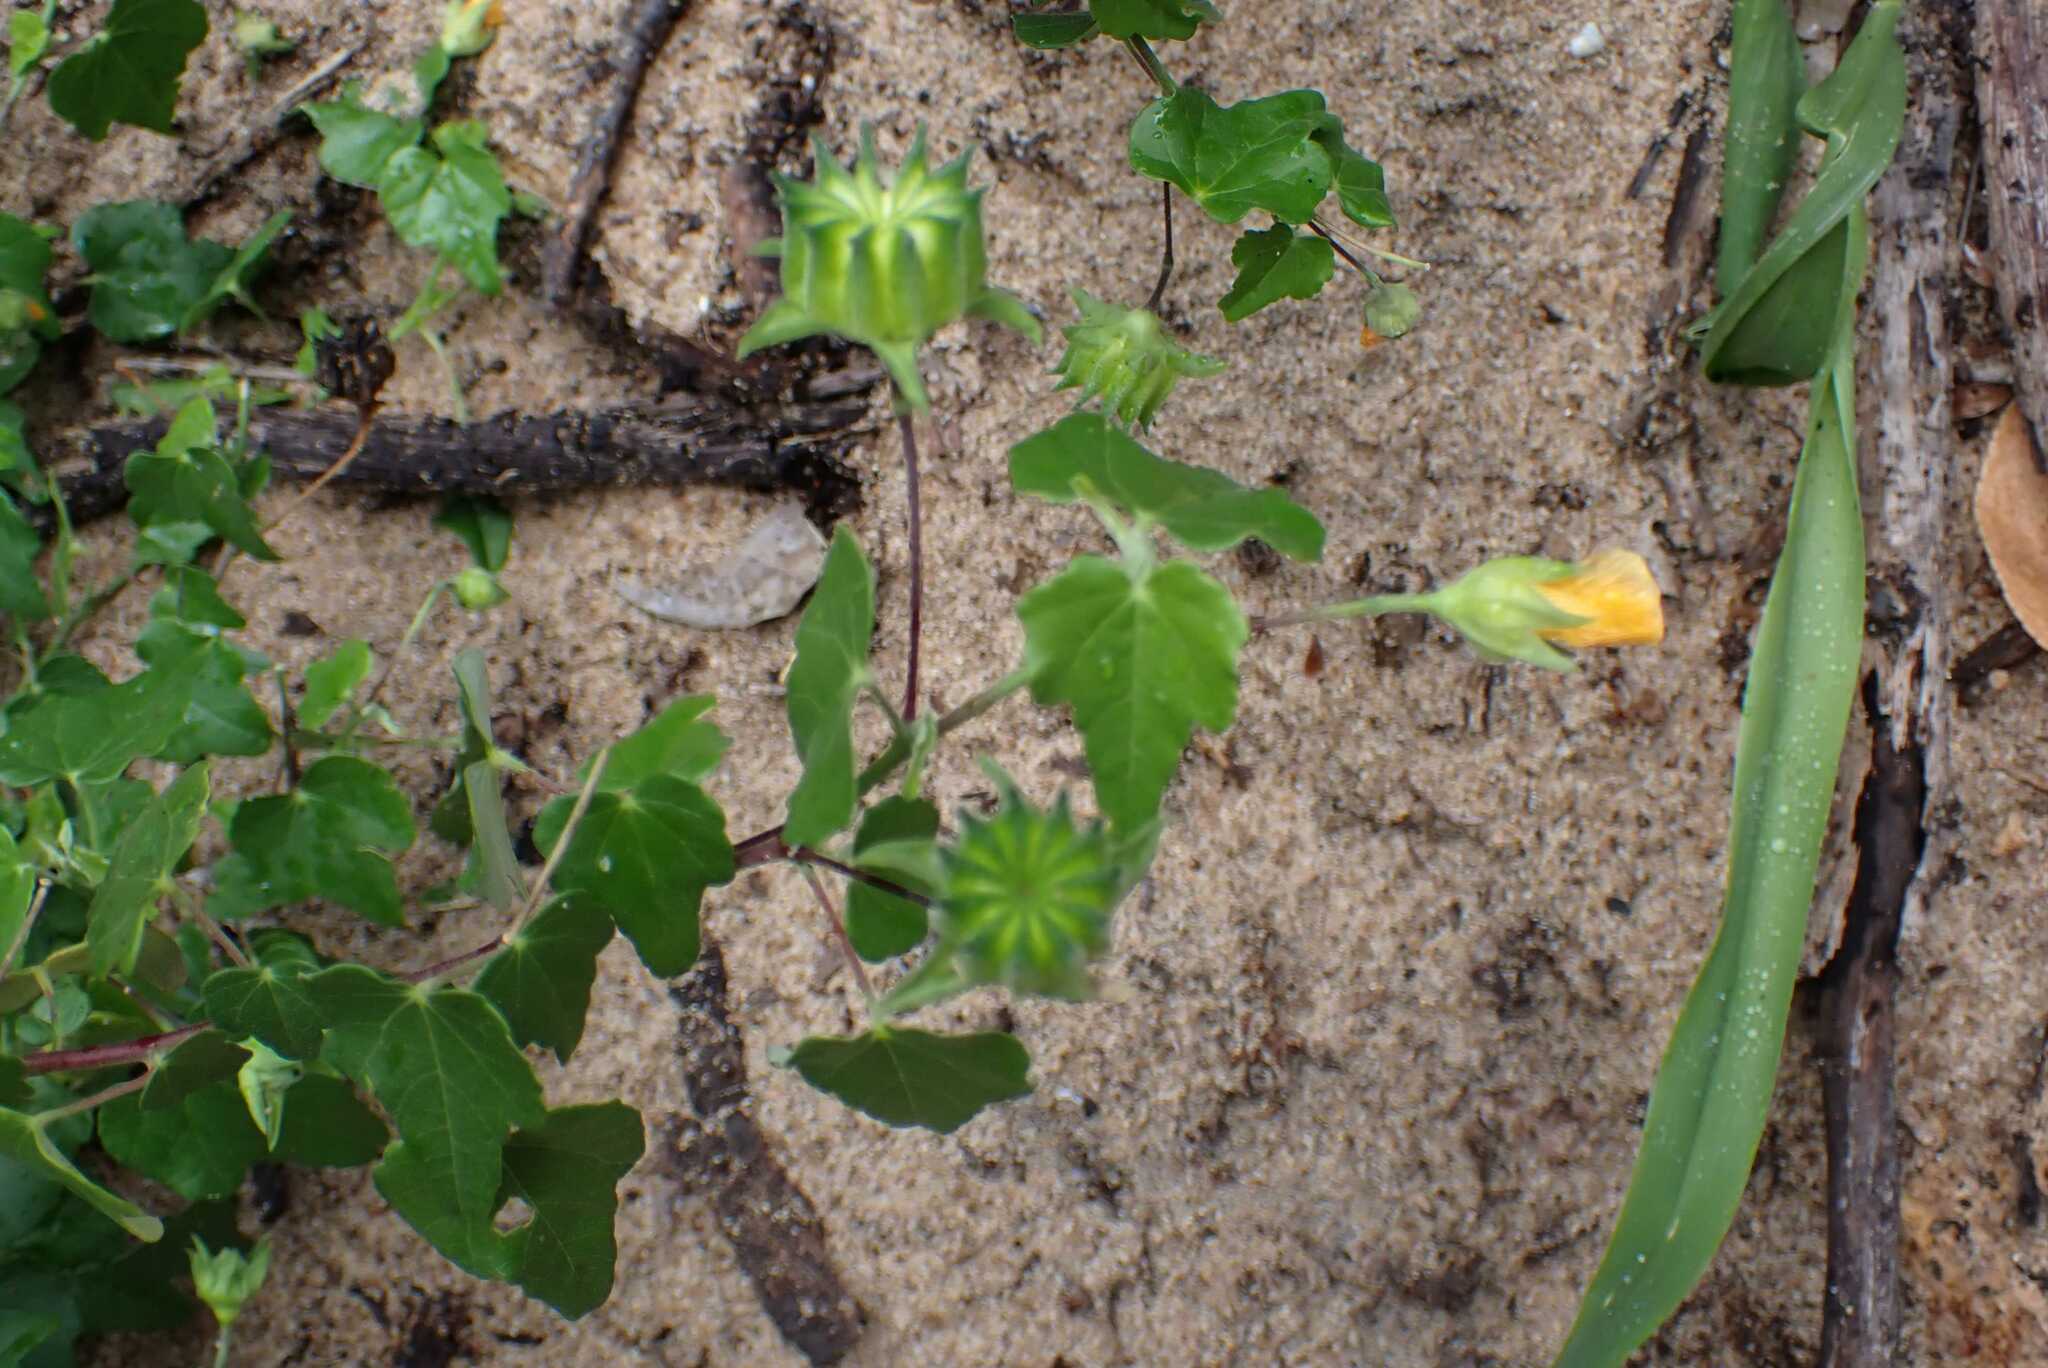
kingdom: Plantae
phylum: Tracheophyta
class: Magnoliopsida
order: Malvales
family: Malvaceae
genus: Abutilon
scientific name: Abutilon grantii
